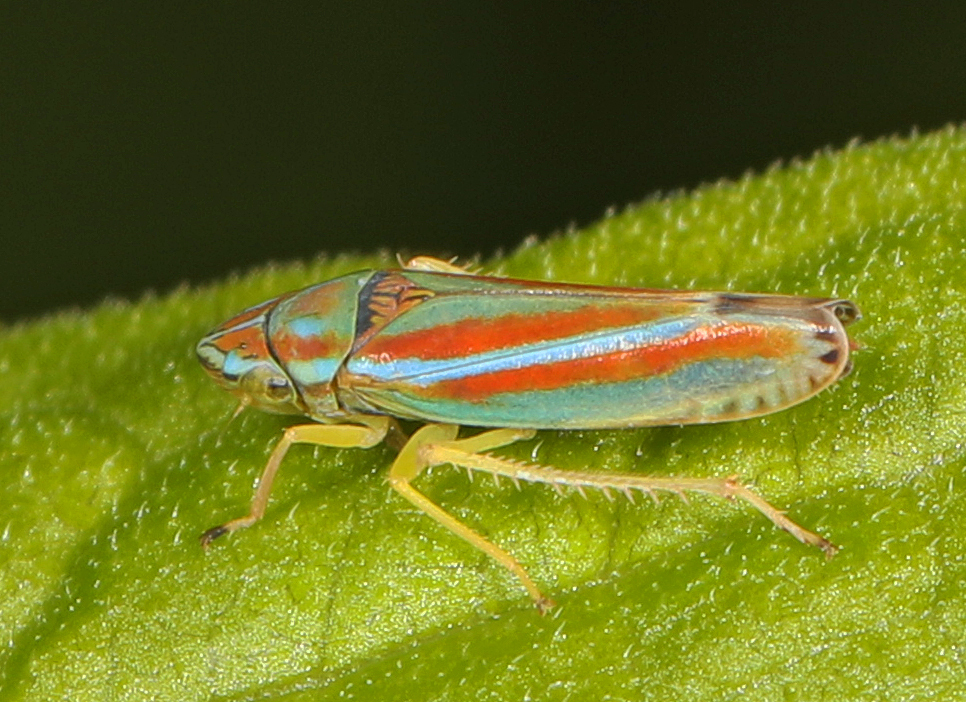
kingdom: Animalia
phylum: Arthropoda
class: Insecta
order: Hemiptera
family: Cicadellidae
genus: Graphocephala
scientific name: Graphocephala versuta
